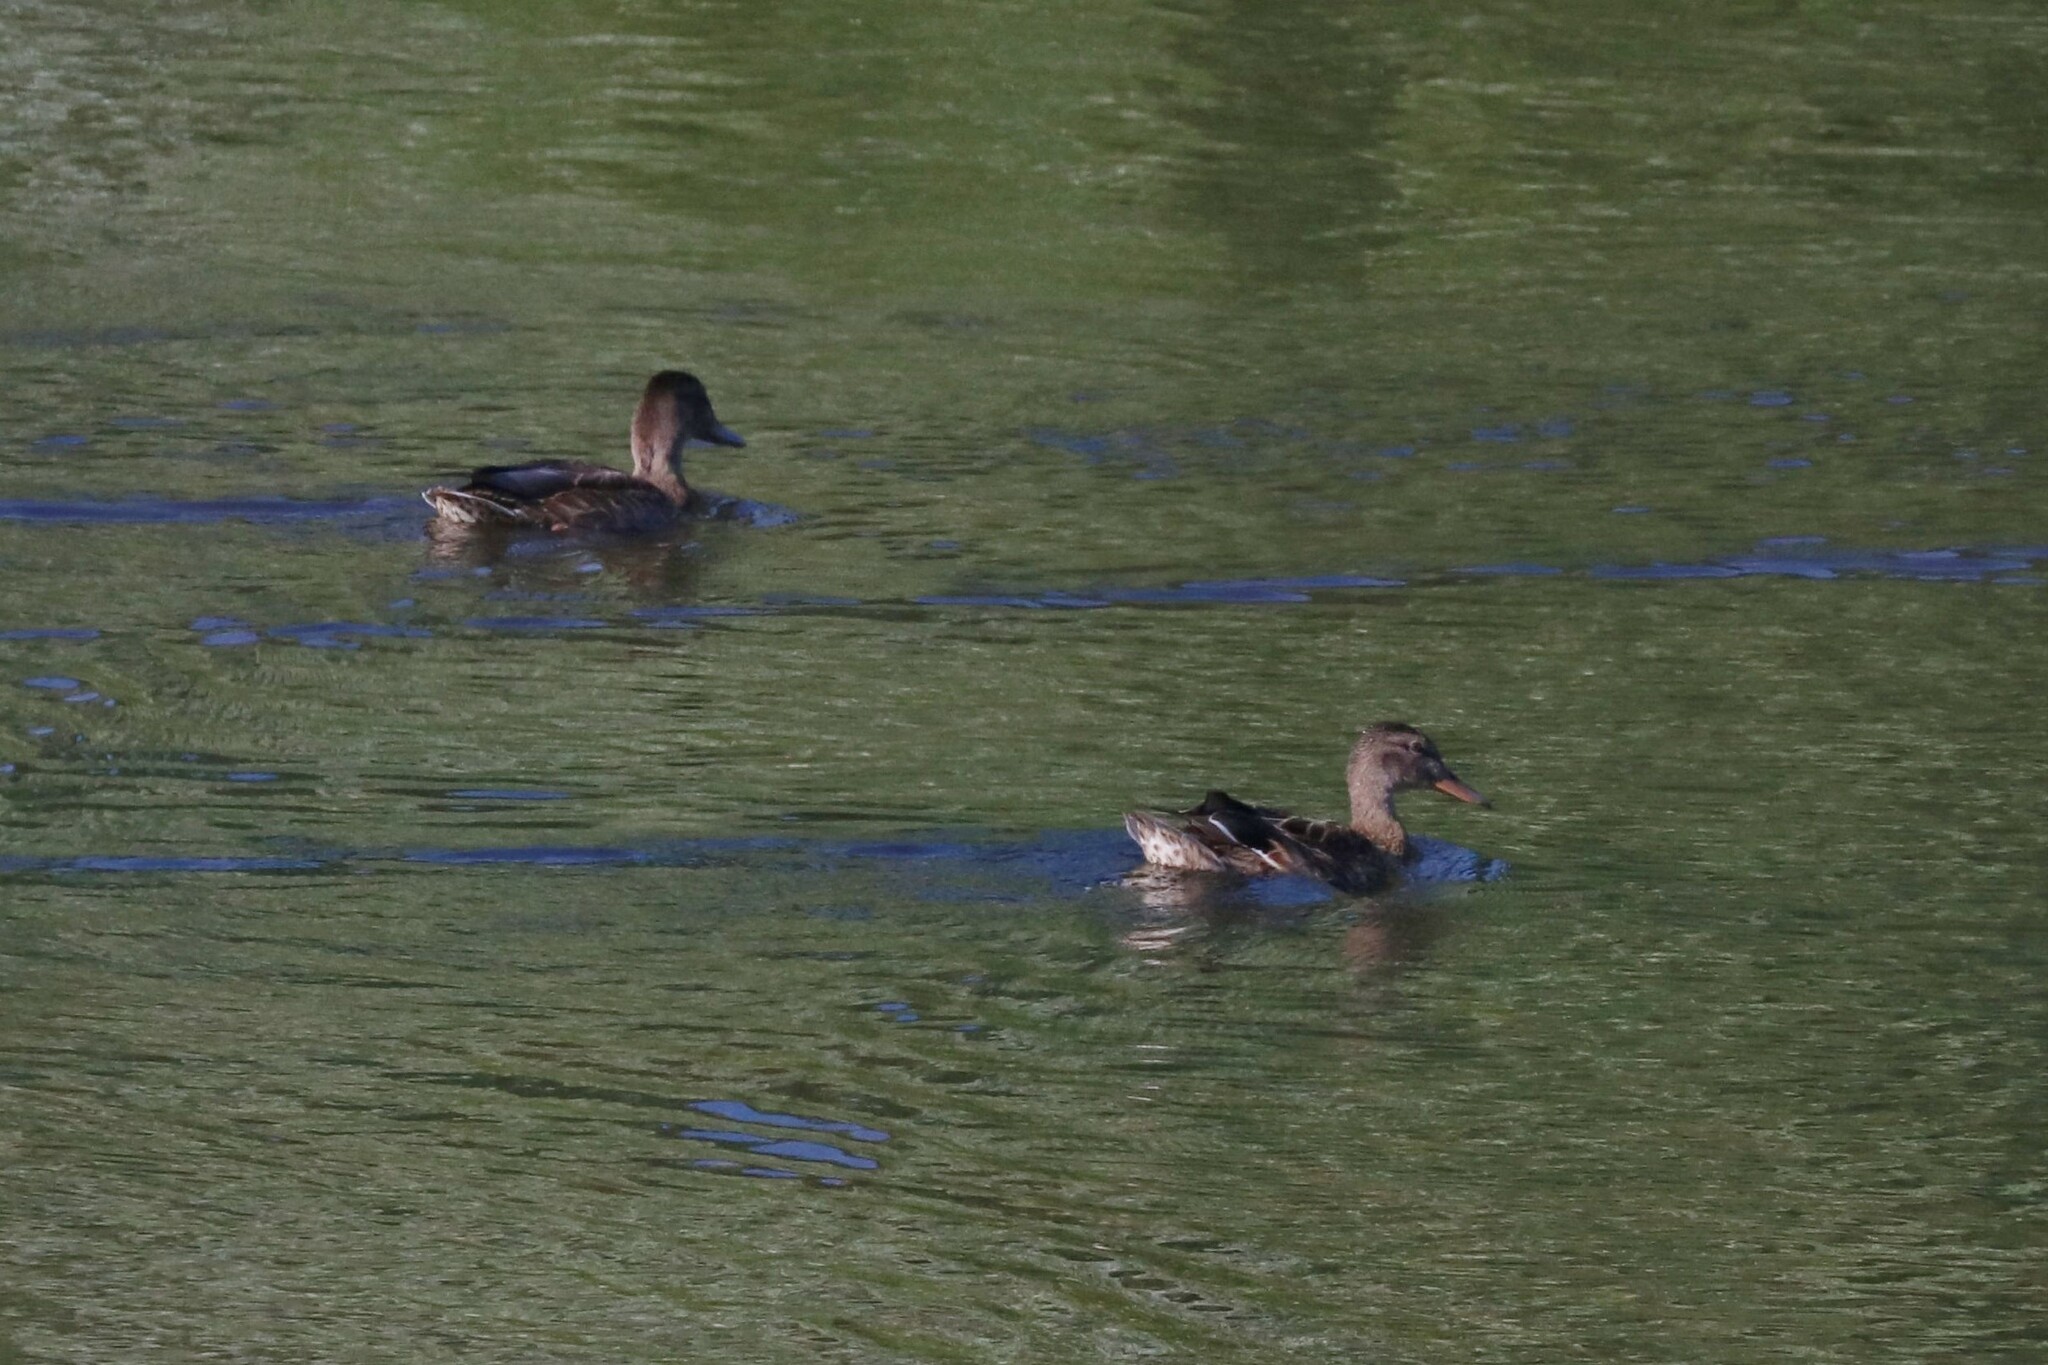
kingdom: Animalia
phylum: Chordata
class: Aves
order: Anseriformes
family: Anatidae
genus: Anas
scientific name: Anas platyrhynchos
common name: Mallard
